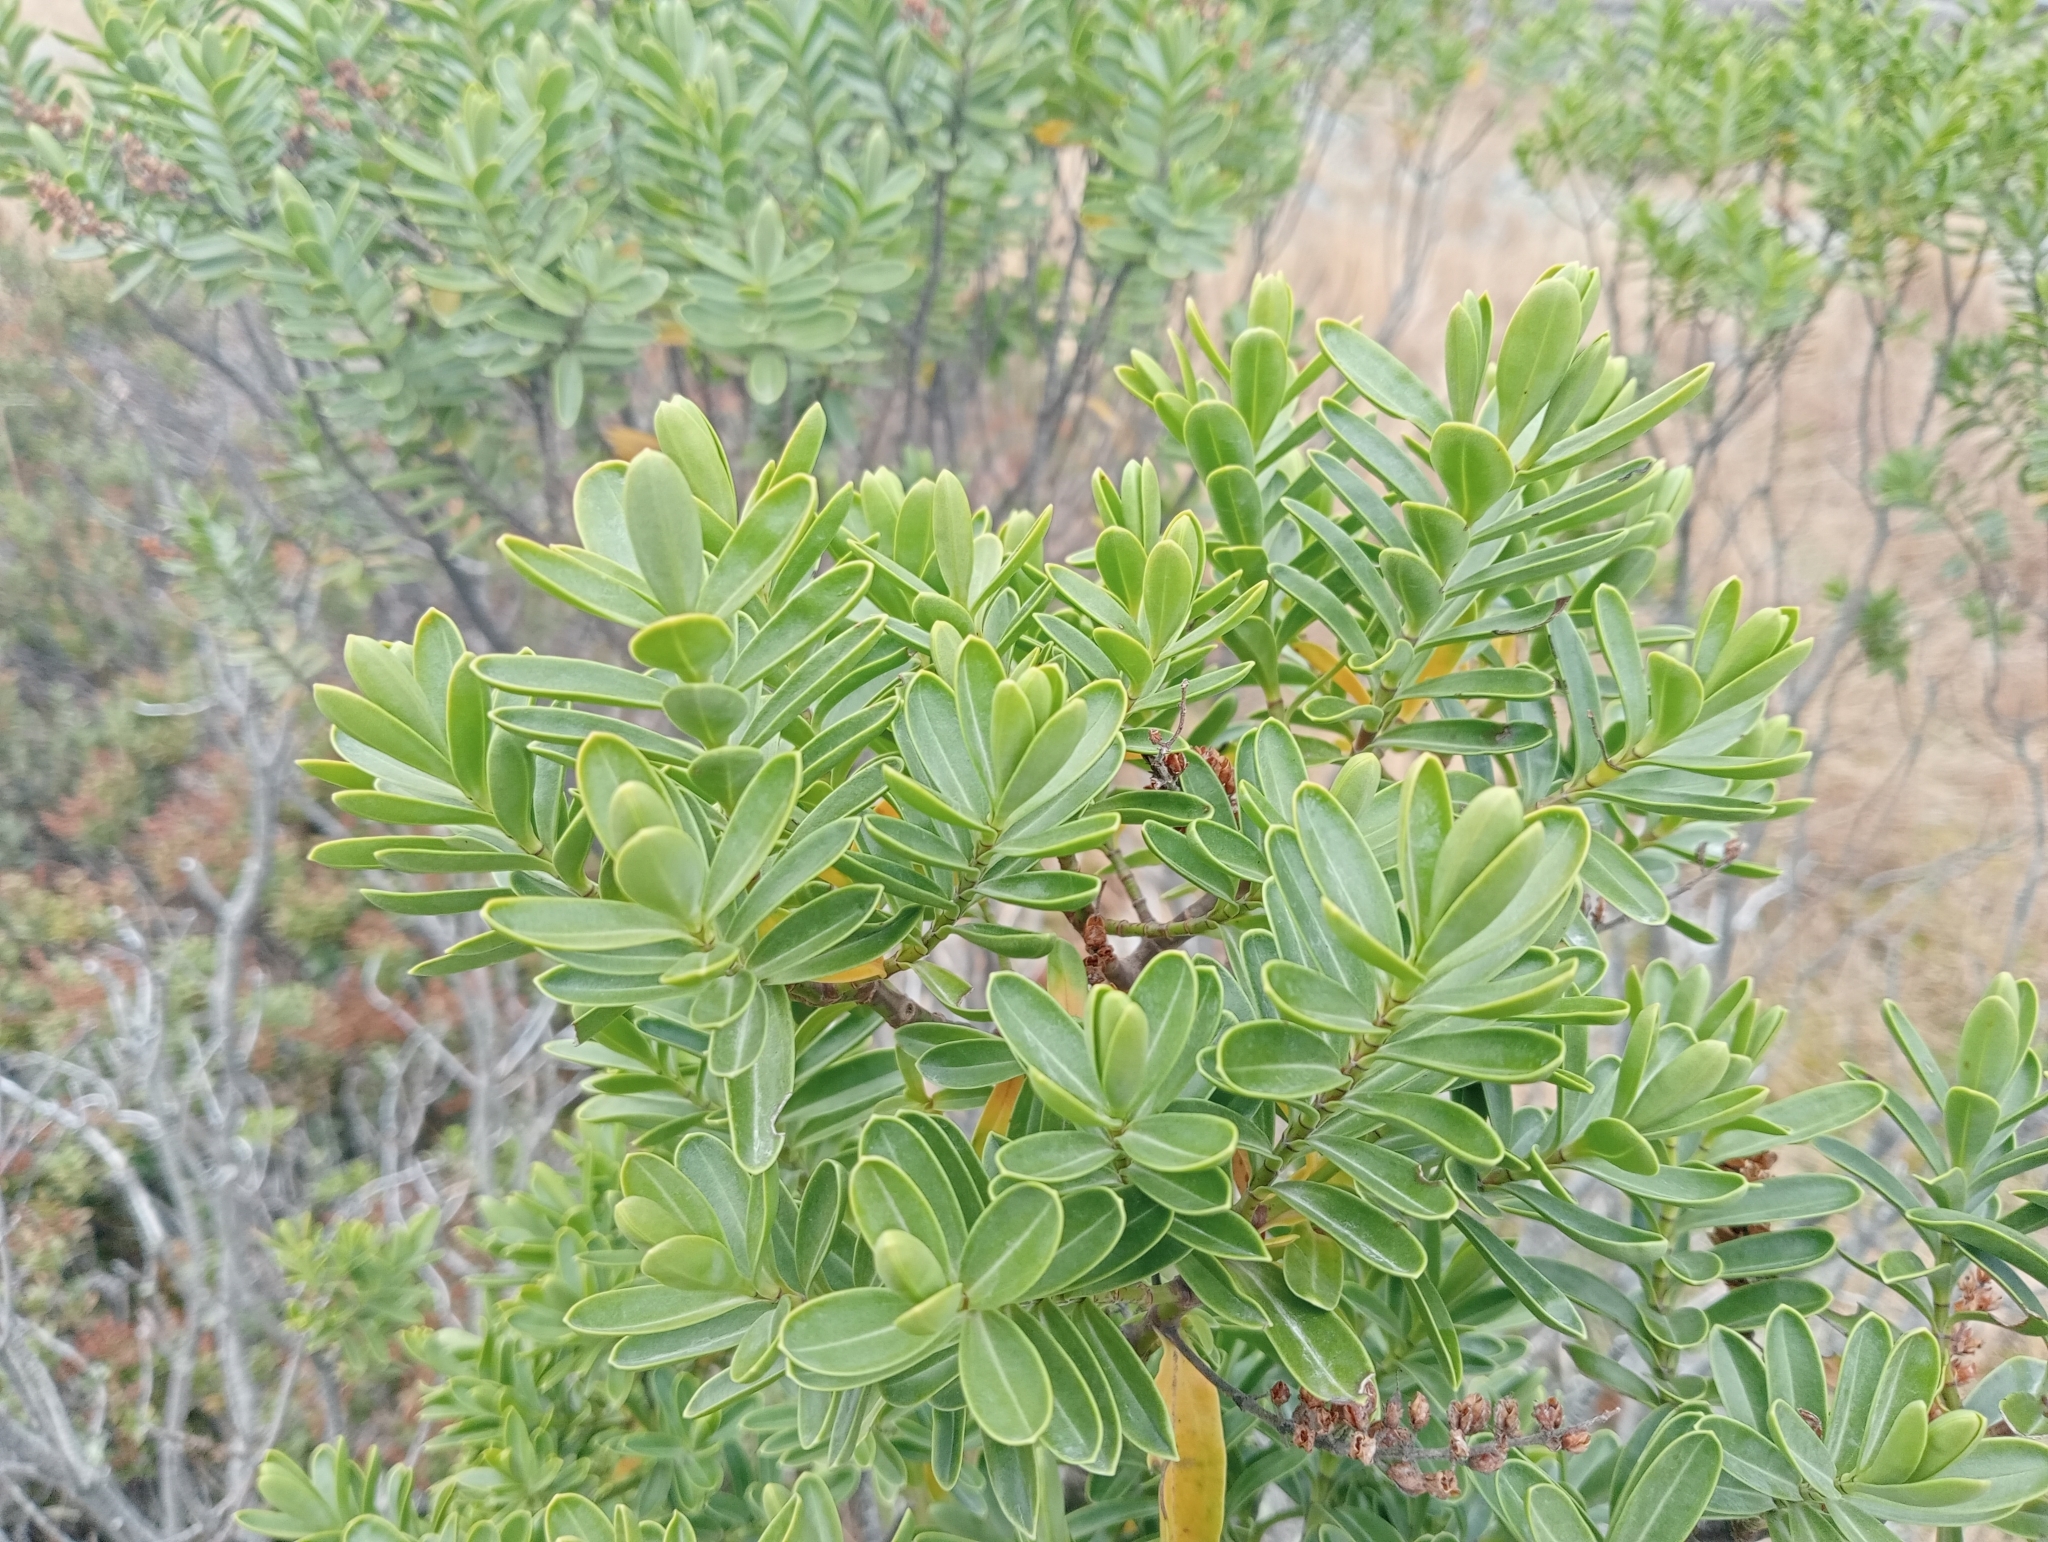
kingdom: Plantae
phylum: Tracheophyta
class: Magnoliopsida
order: Lamiales
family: Plantaginaceae
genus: Veronica
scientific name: Veronica subalpina
